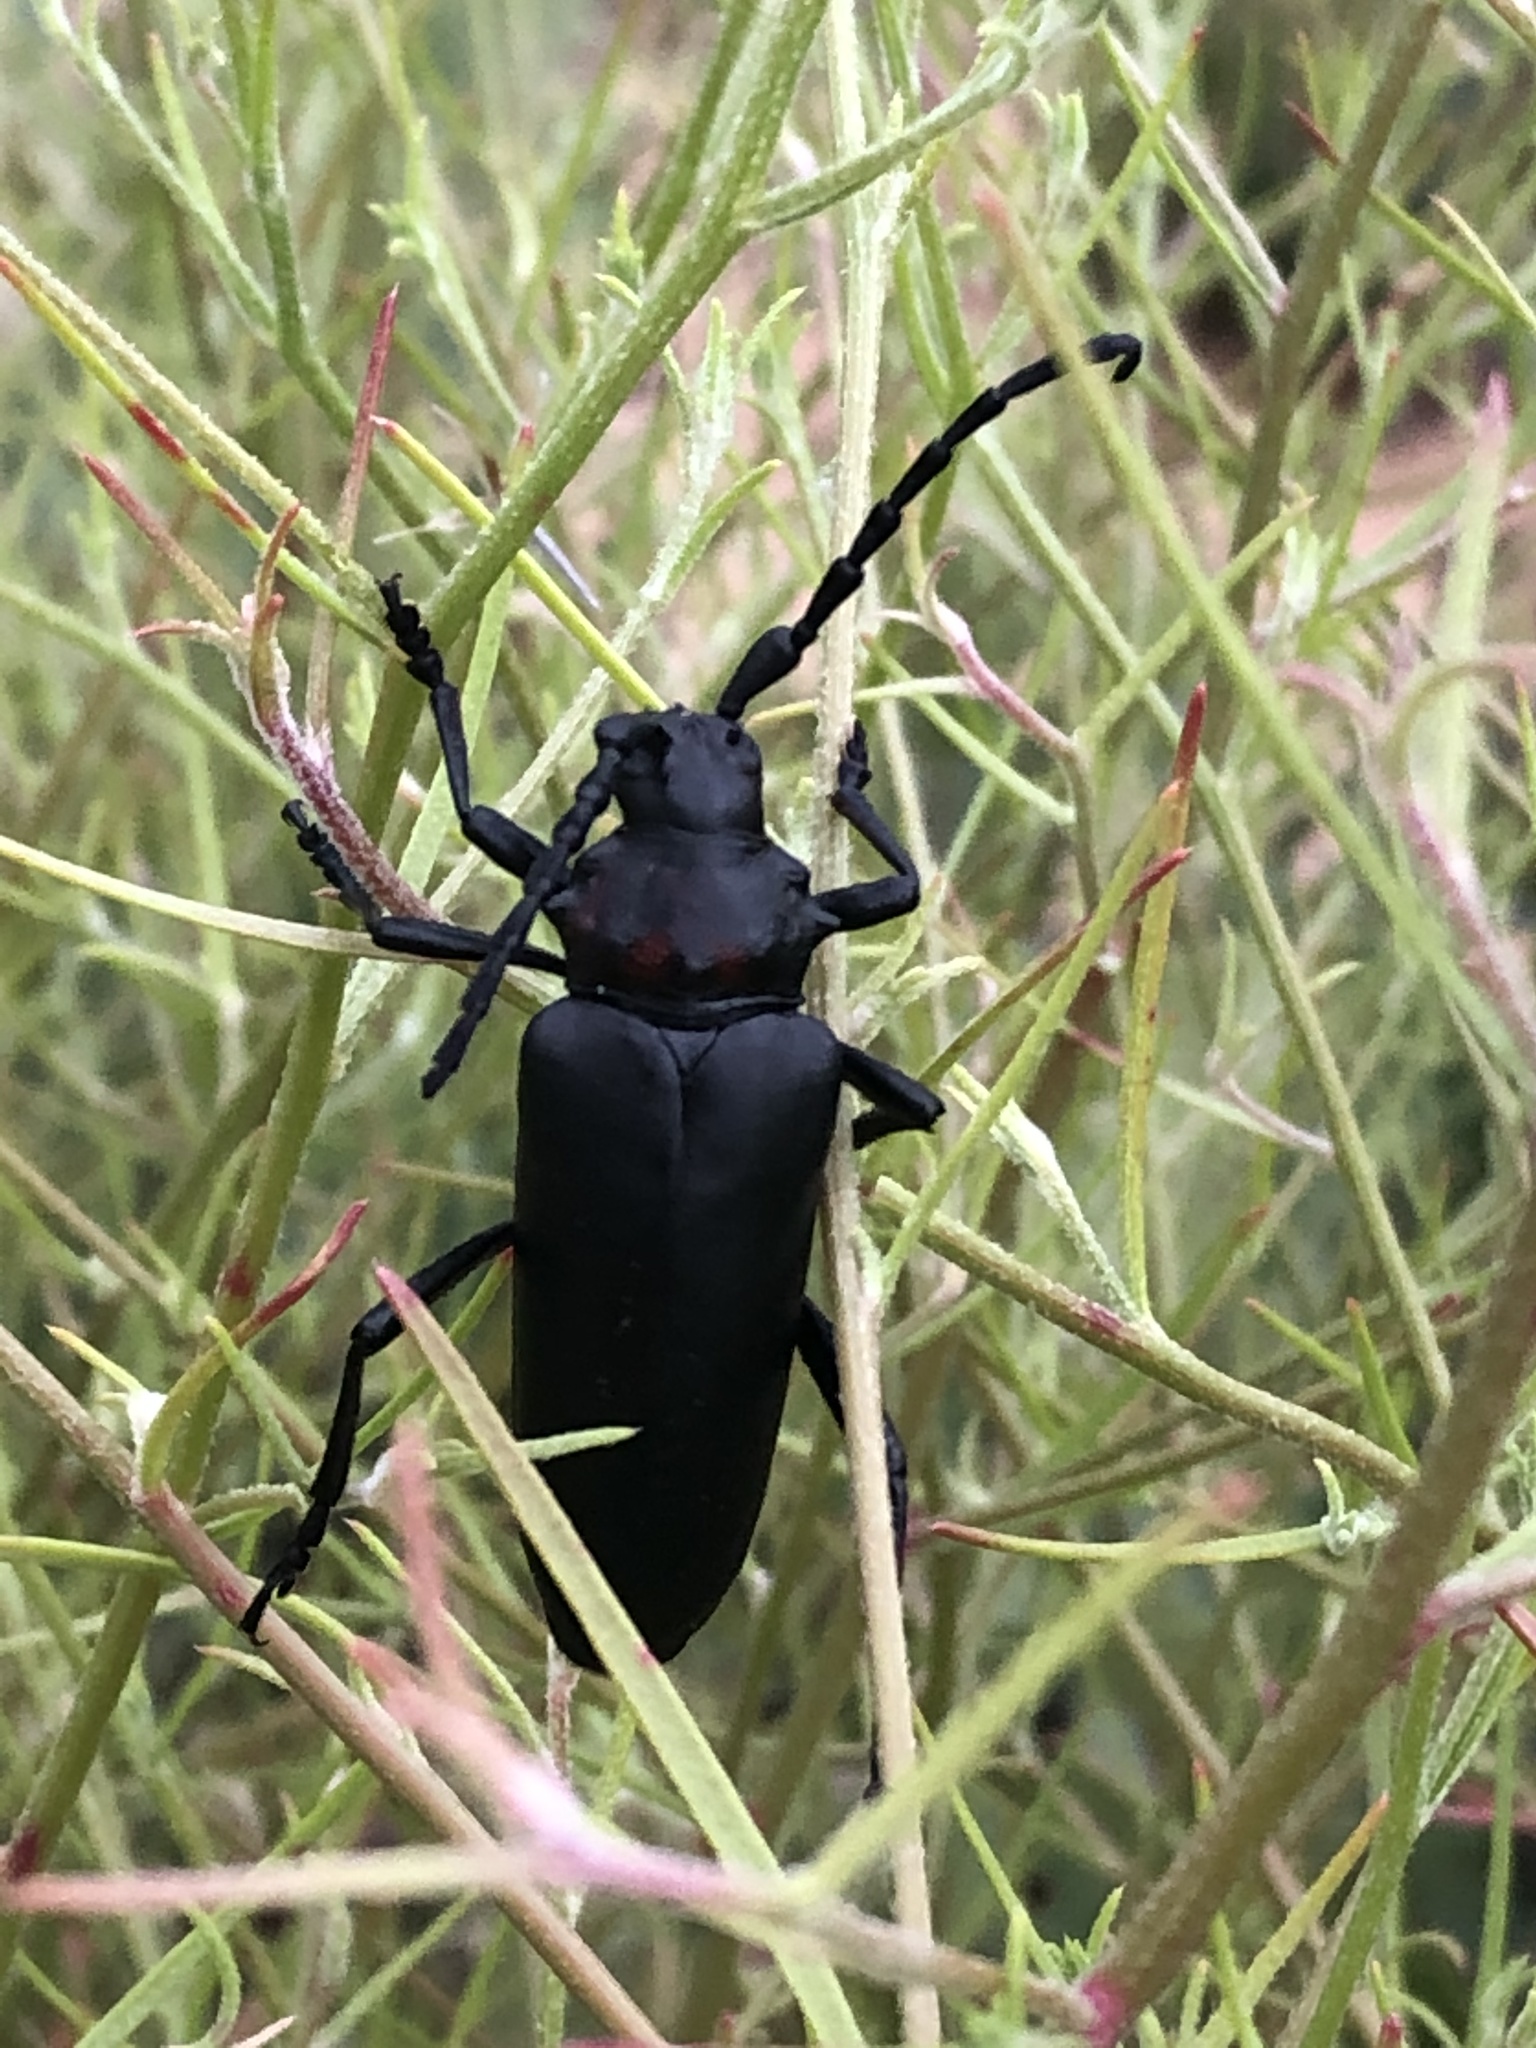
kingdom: Animalia
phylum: Arthropoda
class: Insecta
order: Coleoptera
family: Cerambycidae
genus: Stenaspis
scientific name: Stenaspis solitaria
